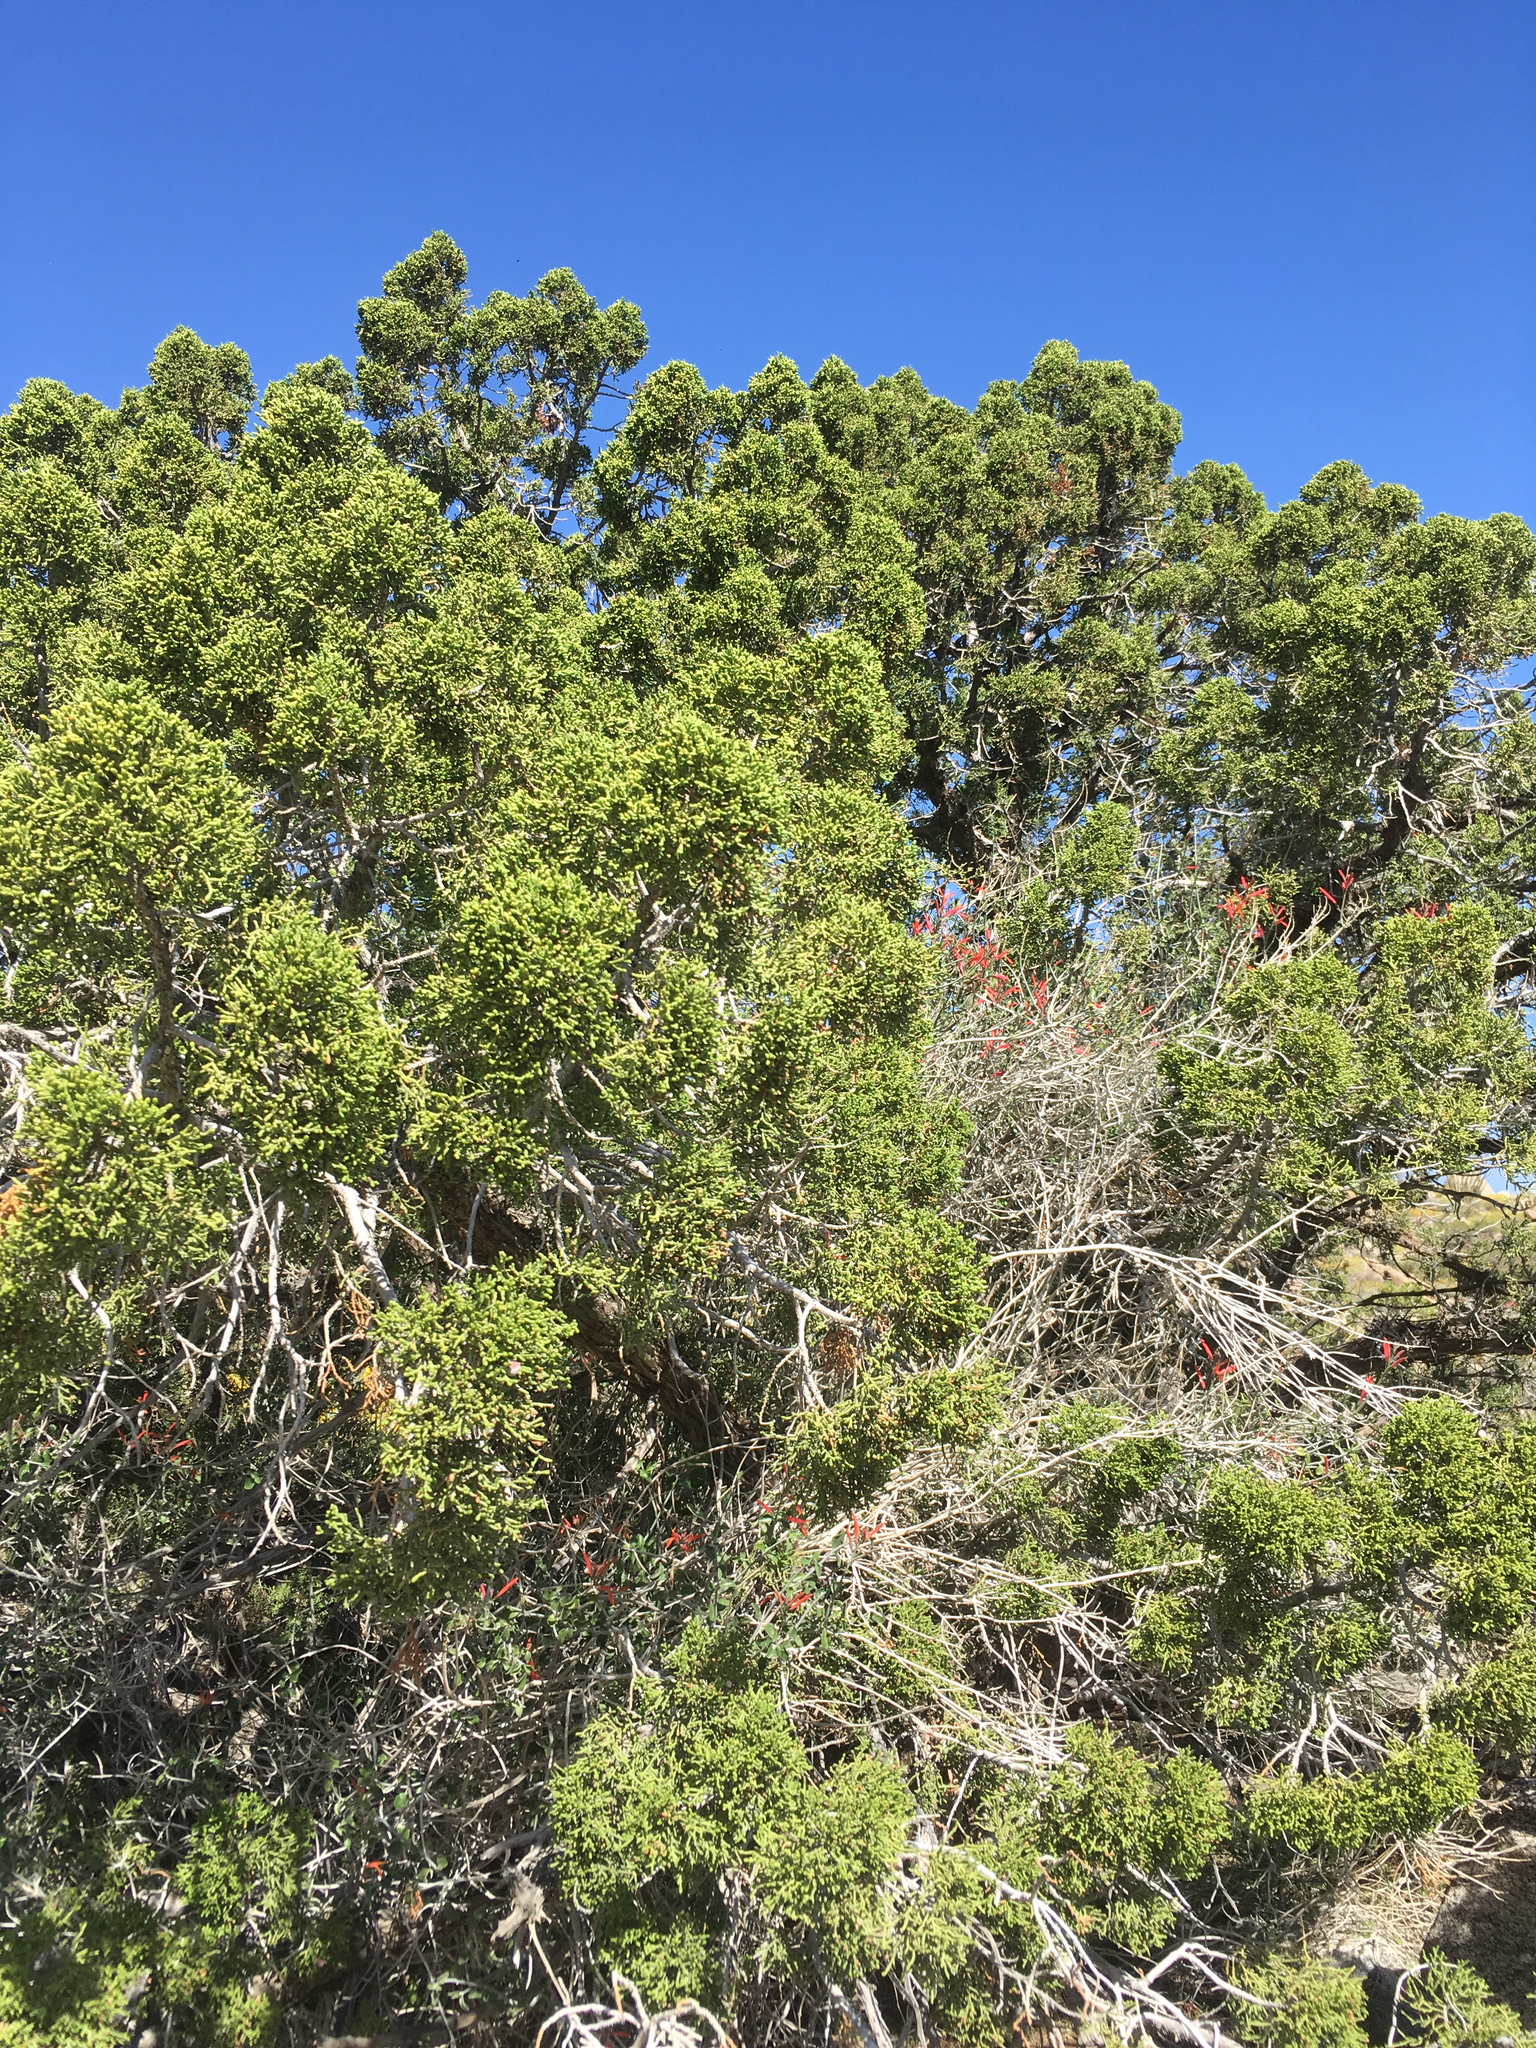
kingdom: Plantae
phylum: Tracheophyta
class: Pinopsida
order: Pinales
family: Cupressaceae
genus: Juniperus
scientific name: Juniperus californica
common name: California juniper
